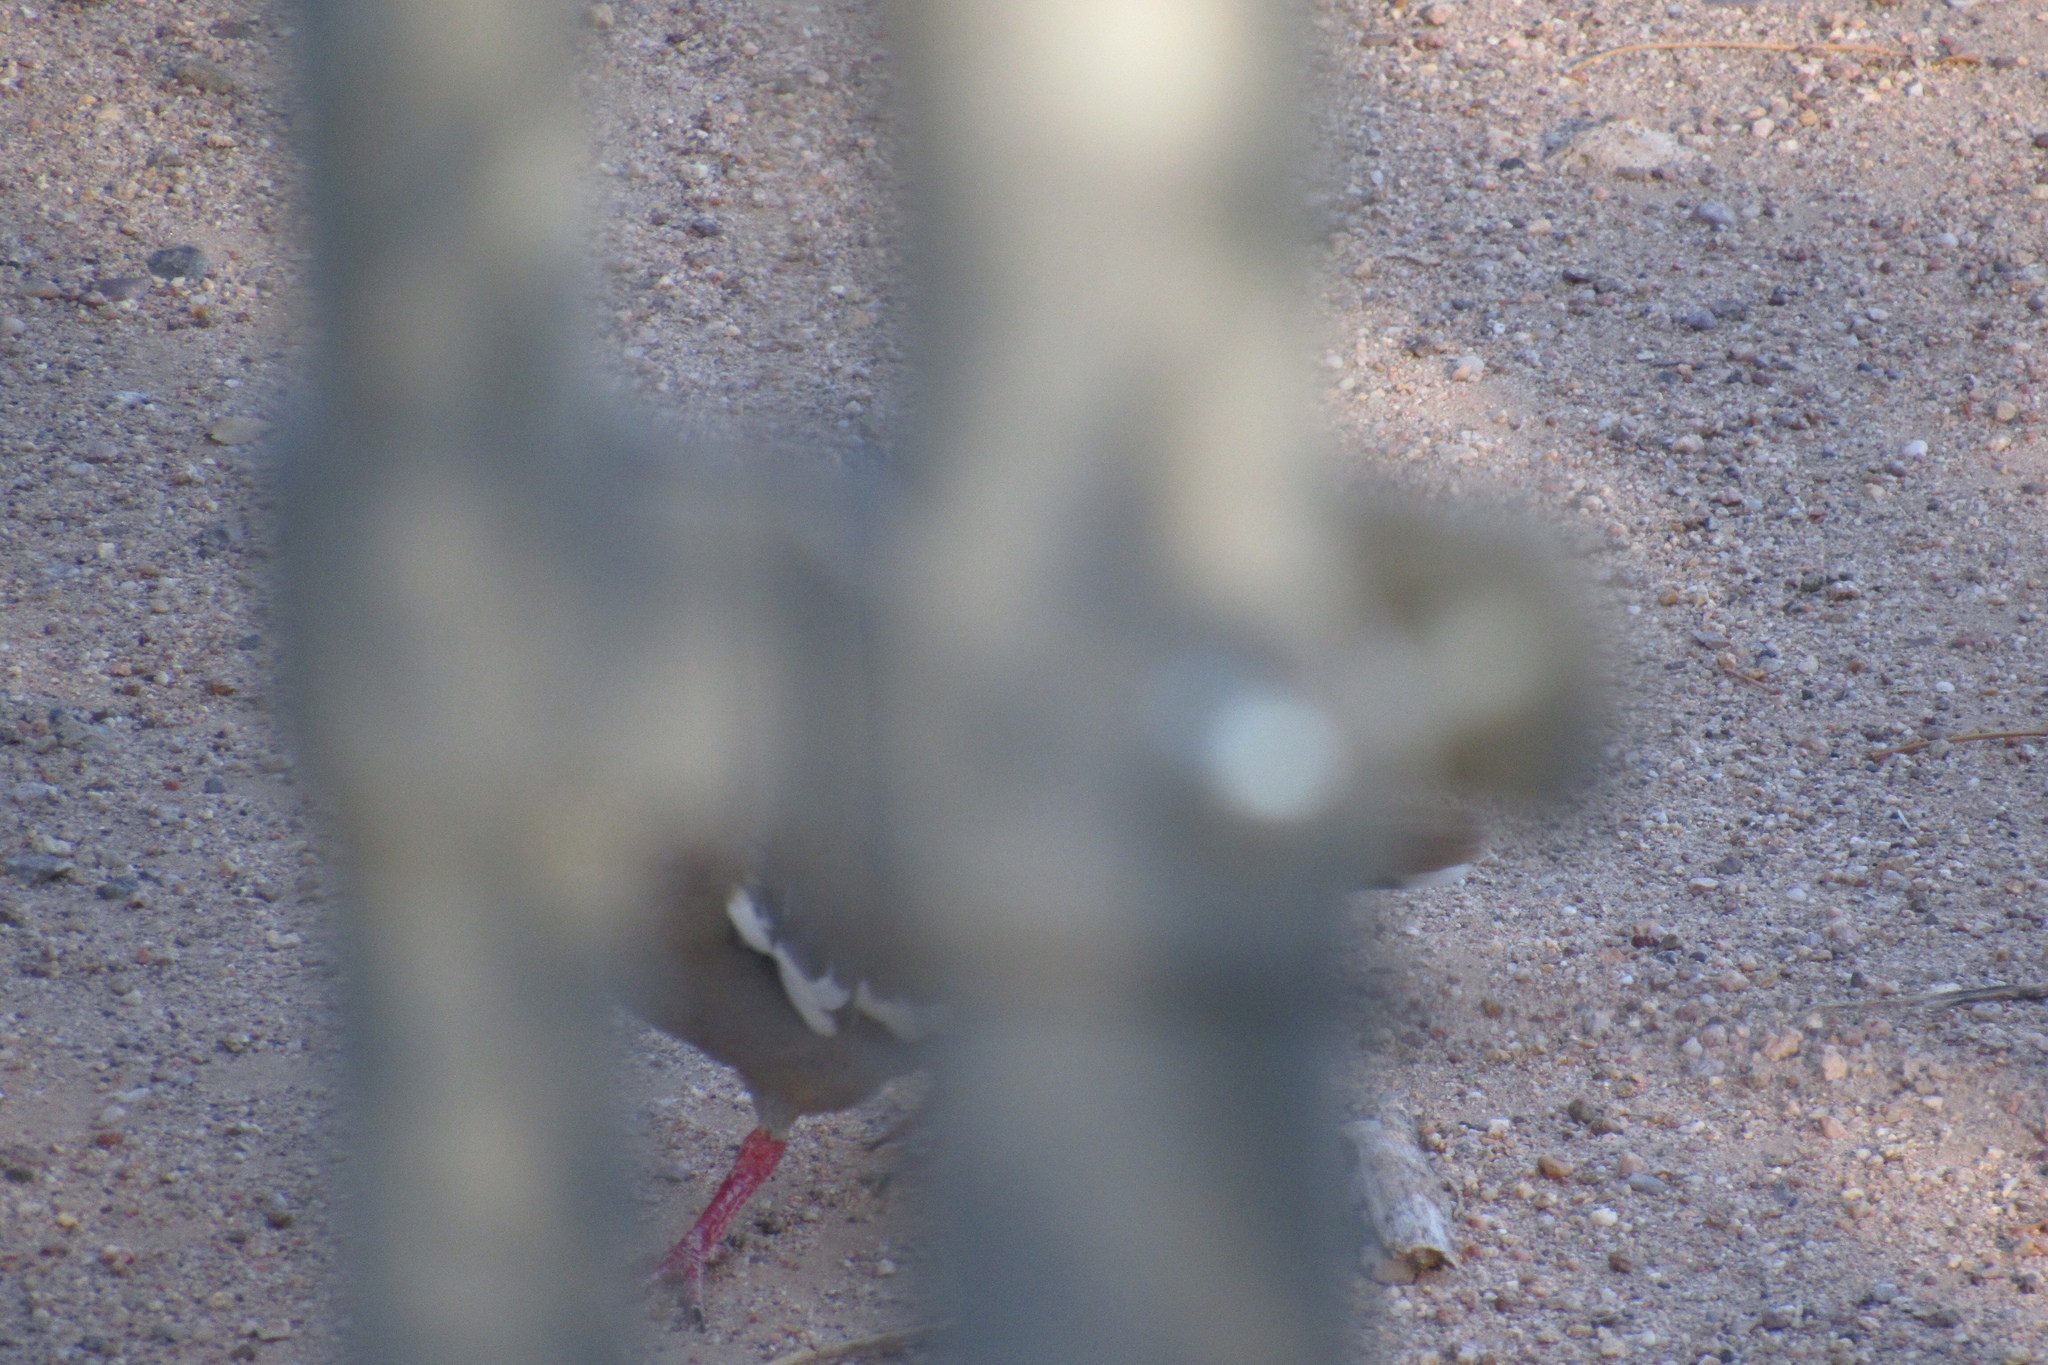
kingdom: Animalia
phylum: Chordata
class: Aves
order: Columbiformes
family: Columbidae
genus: Zenaida
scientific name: Zenaida asiatica
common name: White-winged dove
